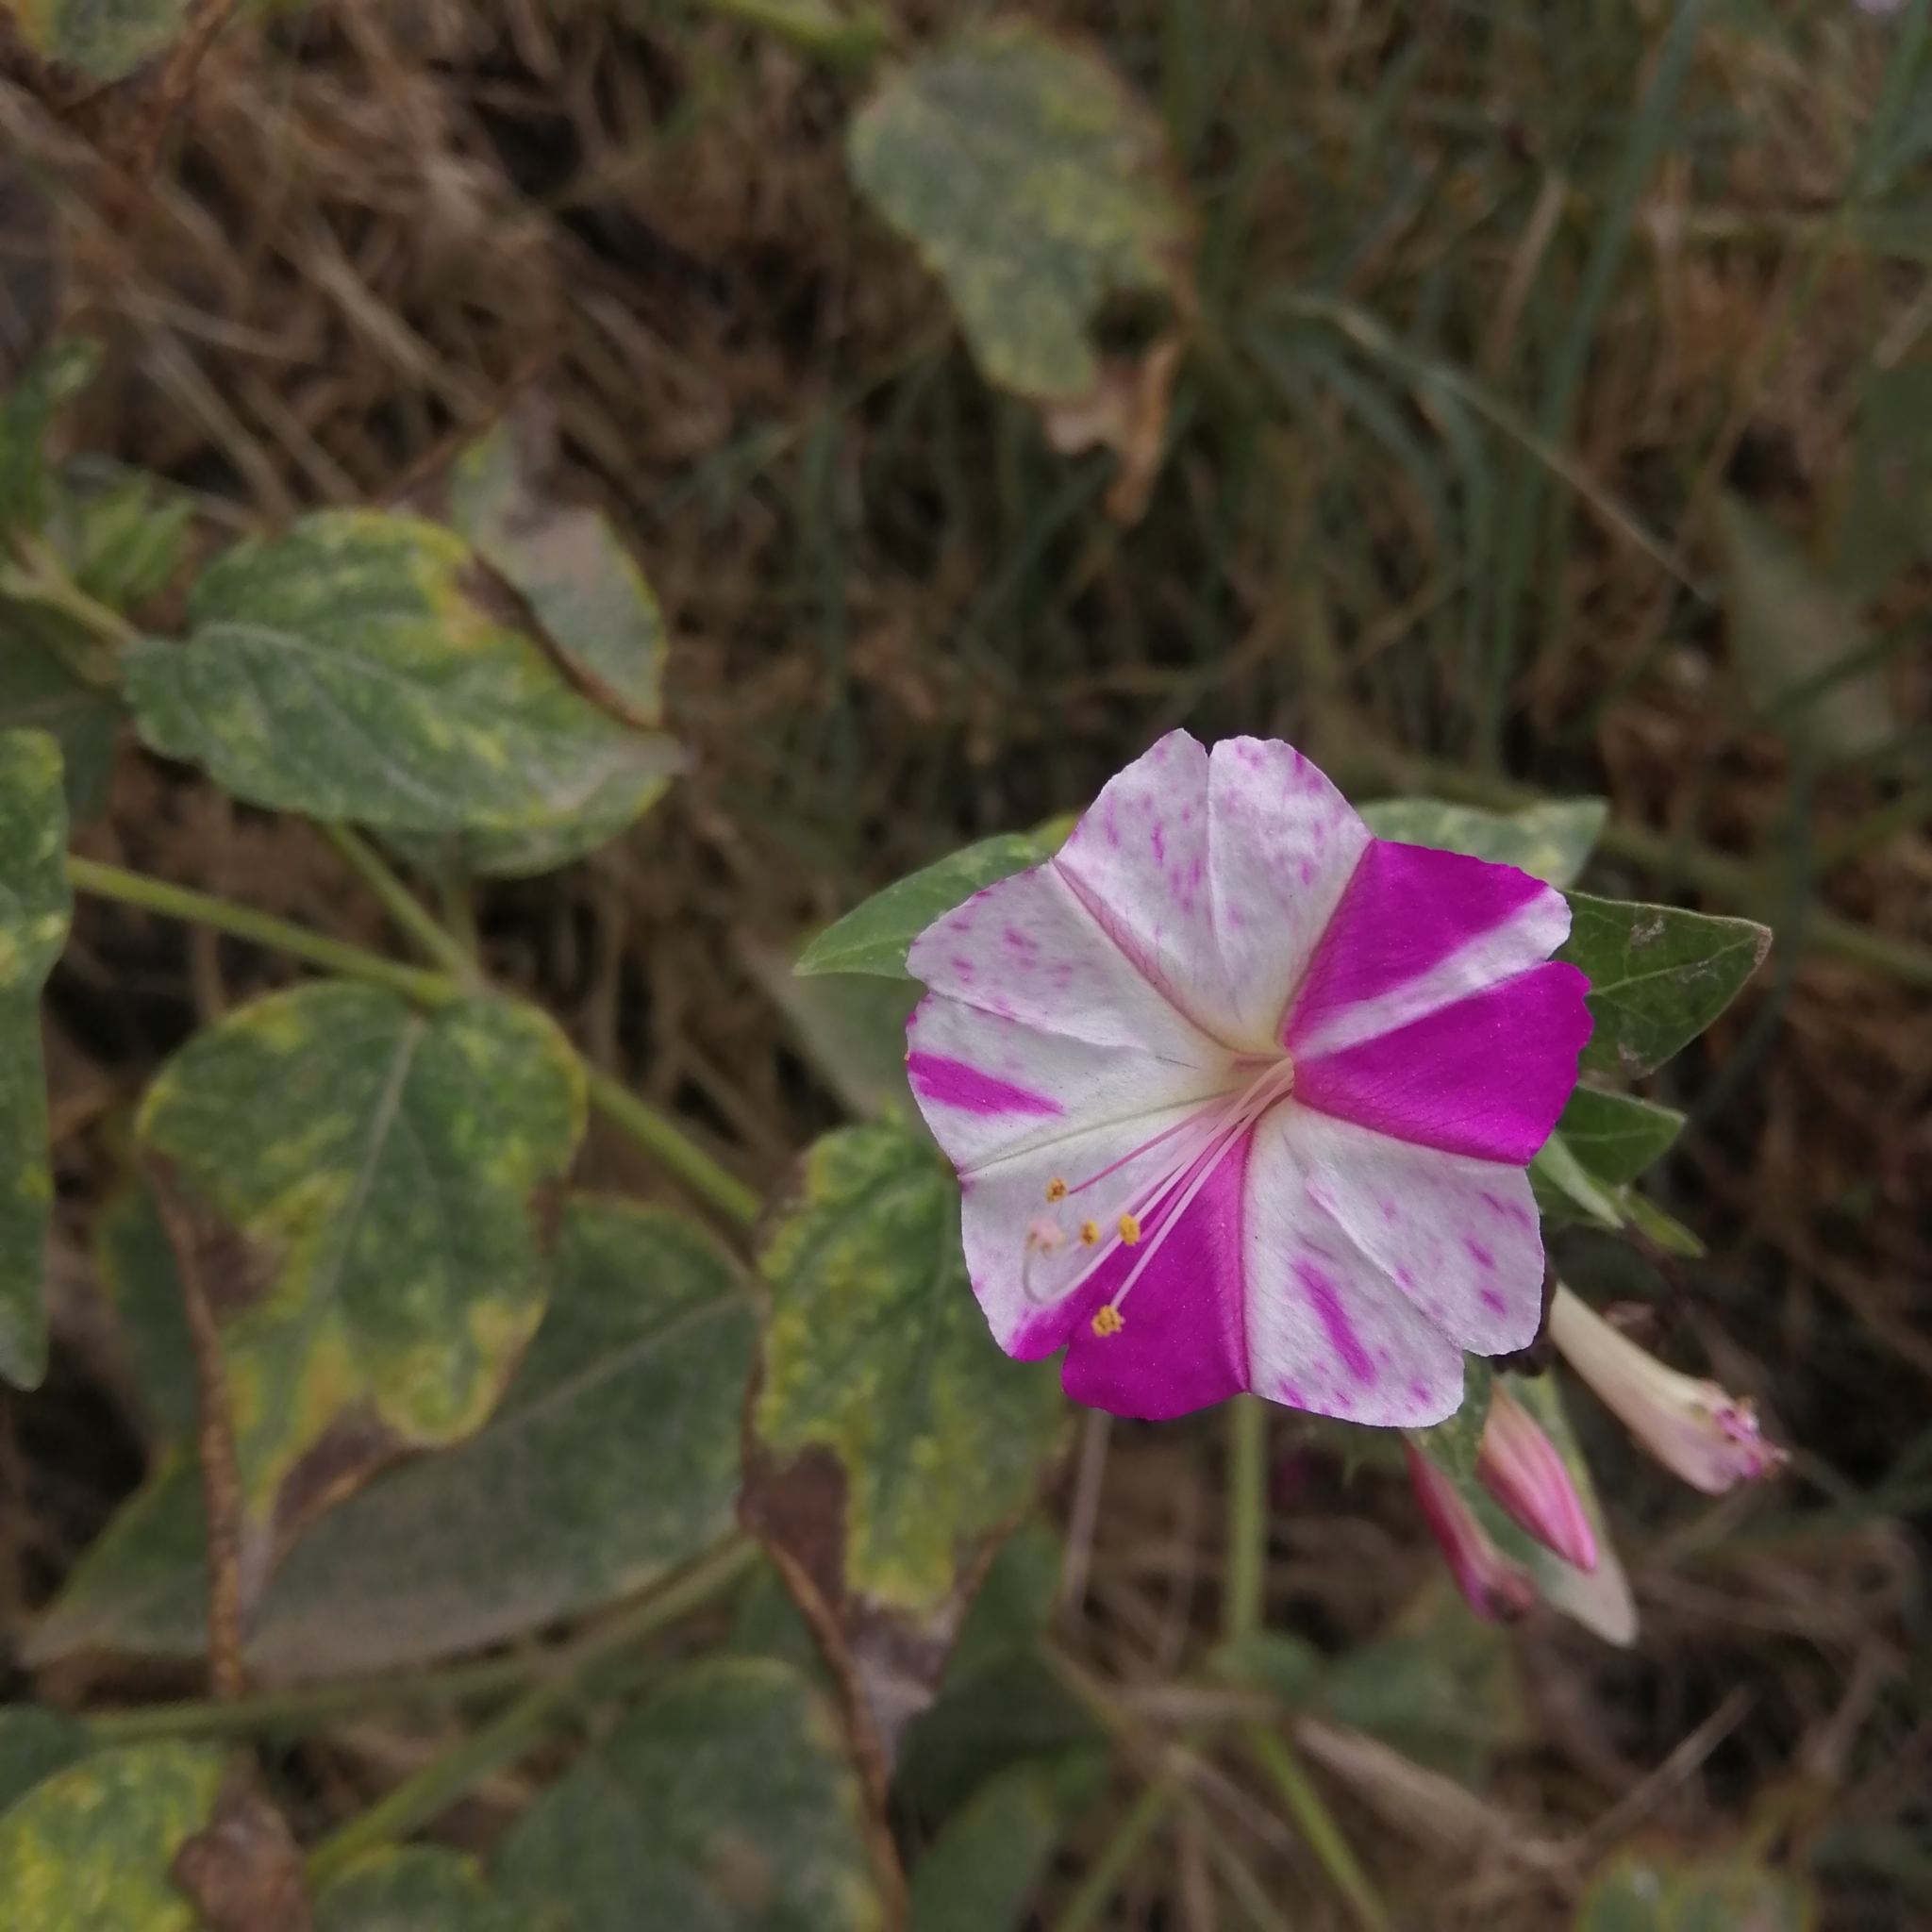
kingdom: Plantae
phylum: Tracheophyta
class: Magnoliopsida
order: Caryophyllales
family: Nyctaginaceae
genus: Mirabilis
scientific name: Mirabilis jalapa
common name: Marvel-of-peru
